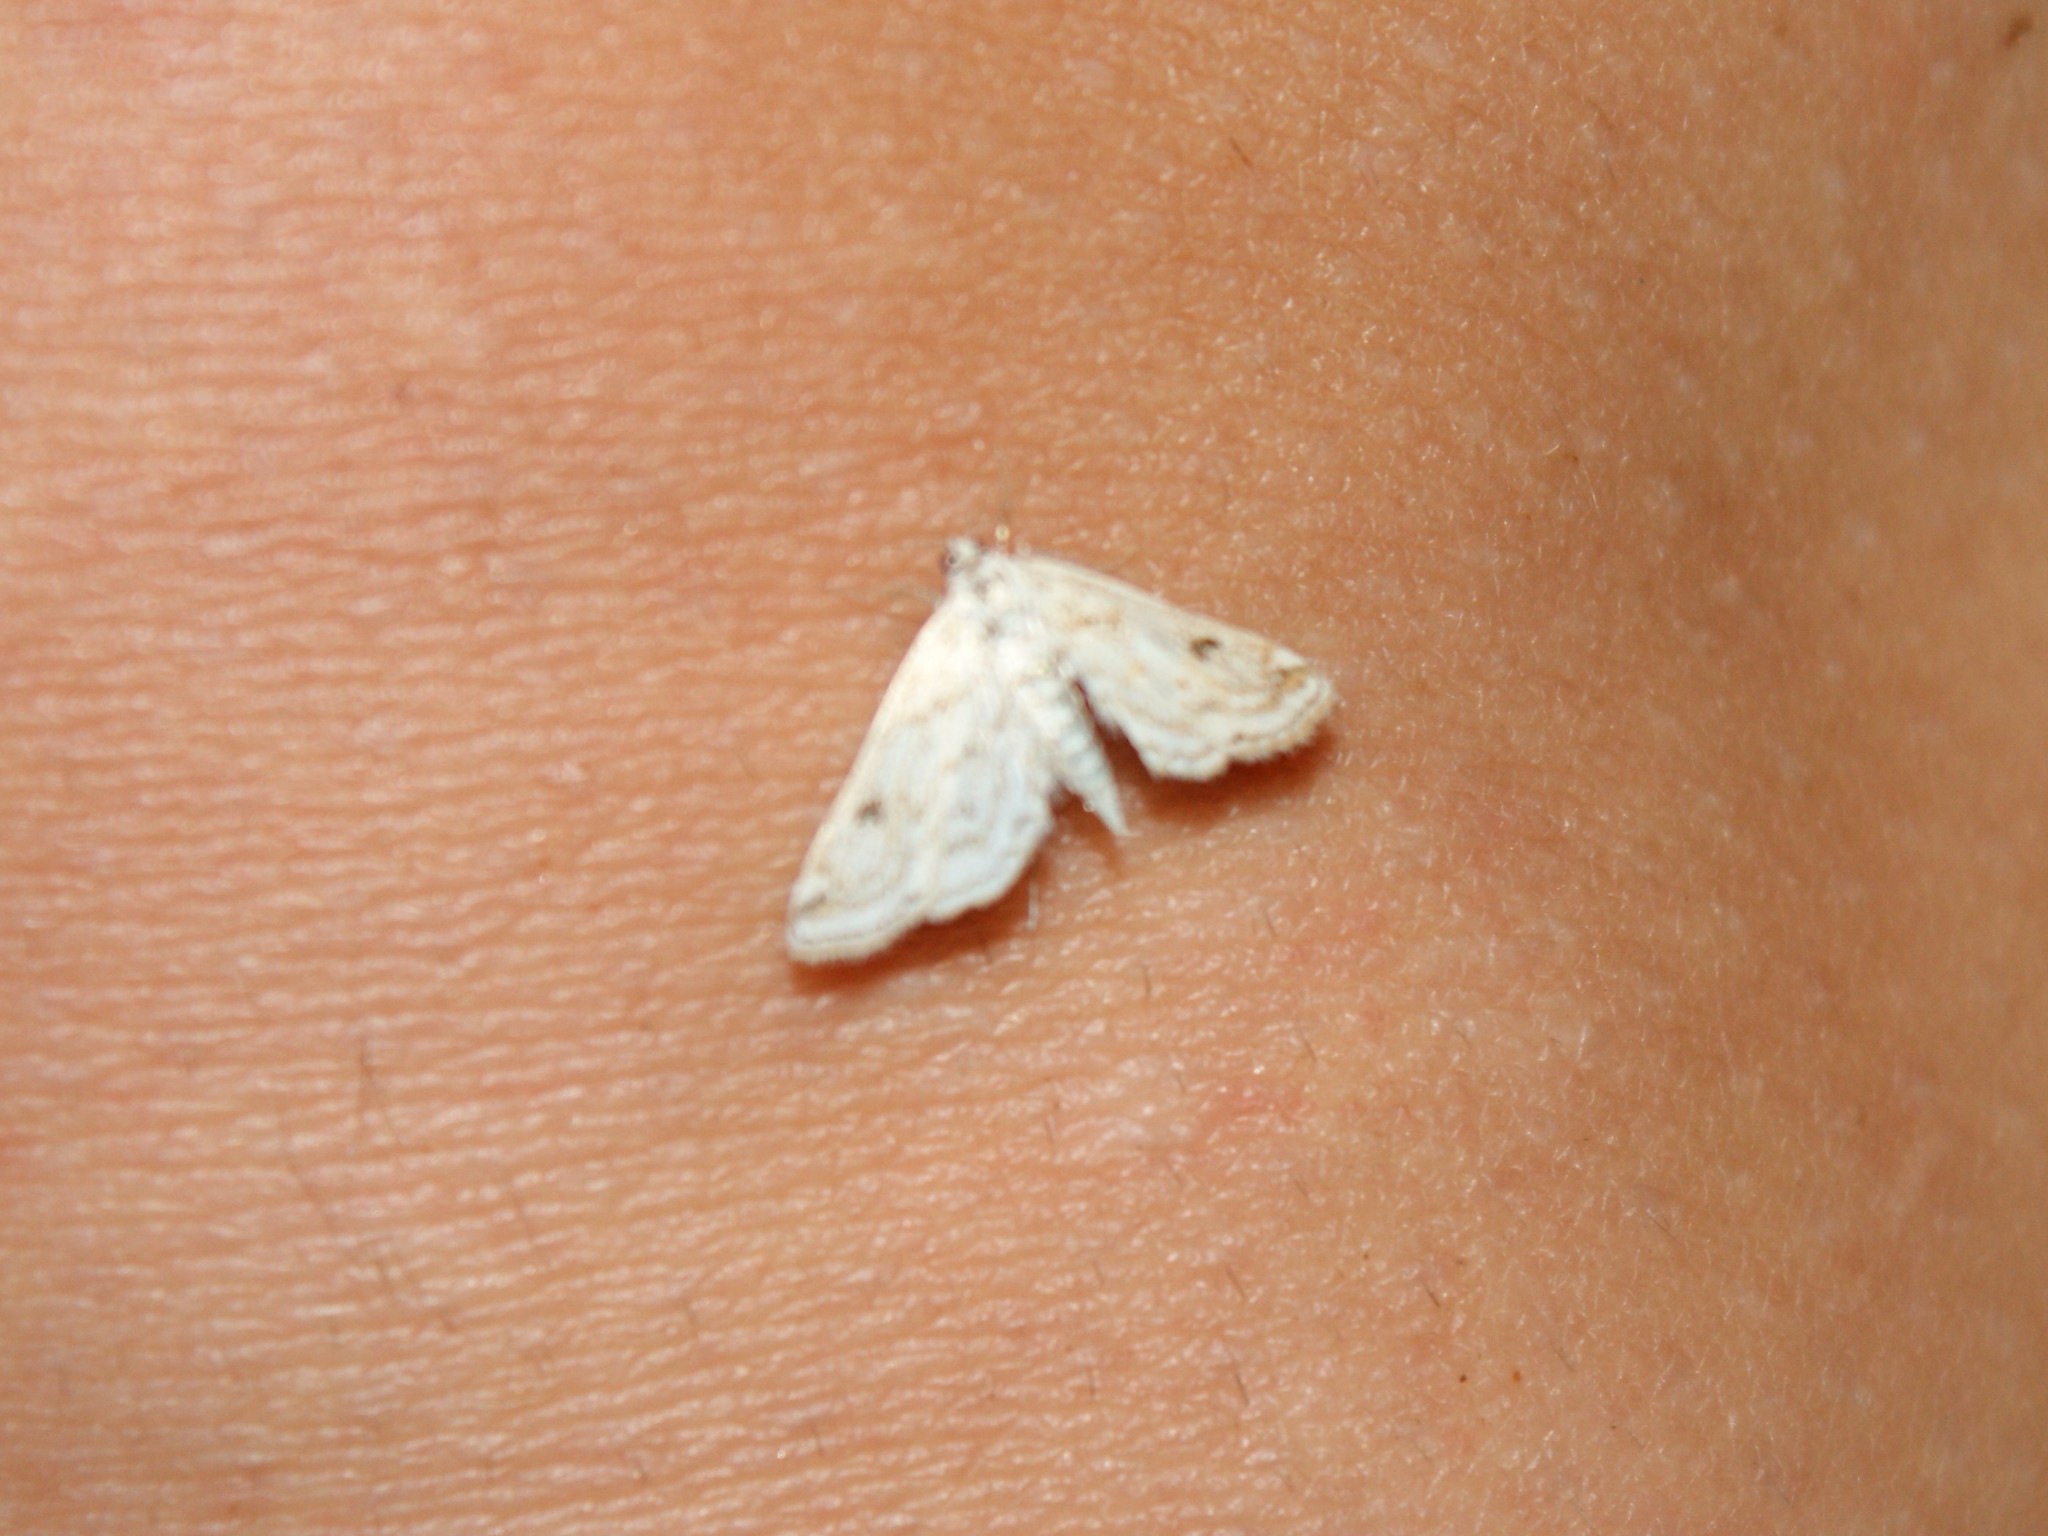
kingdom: Animalia
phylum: Arthropoda
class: Insecta
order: Lepidoptera
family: Crambidae
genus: Parapoynx
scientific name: Parapoynx allionealis
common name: Bladderwort casemaker
